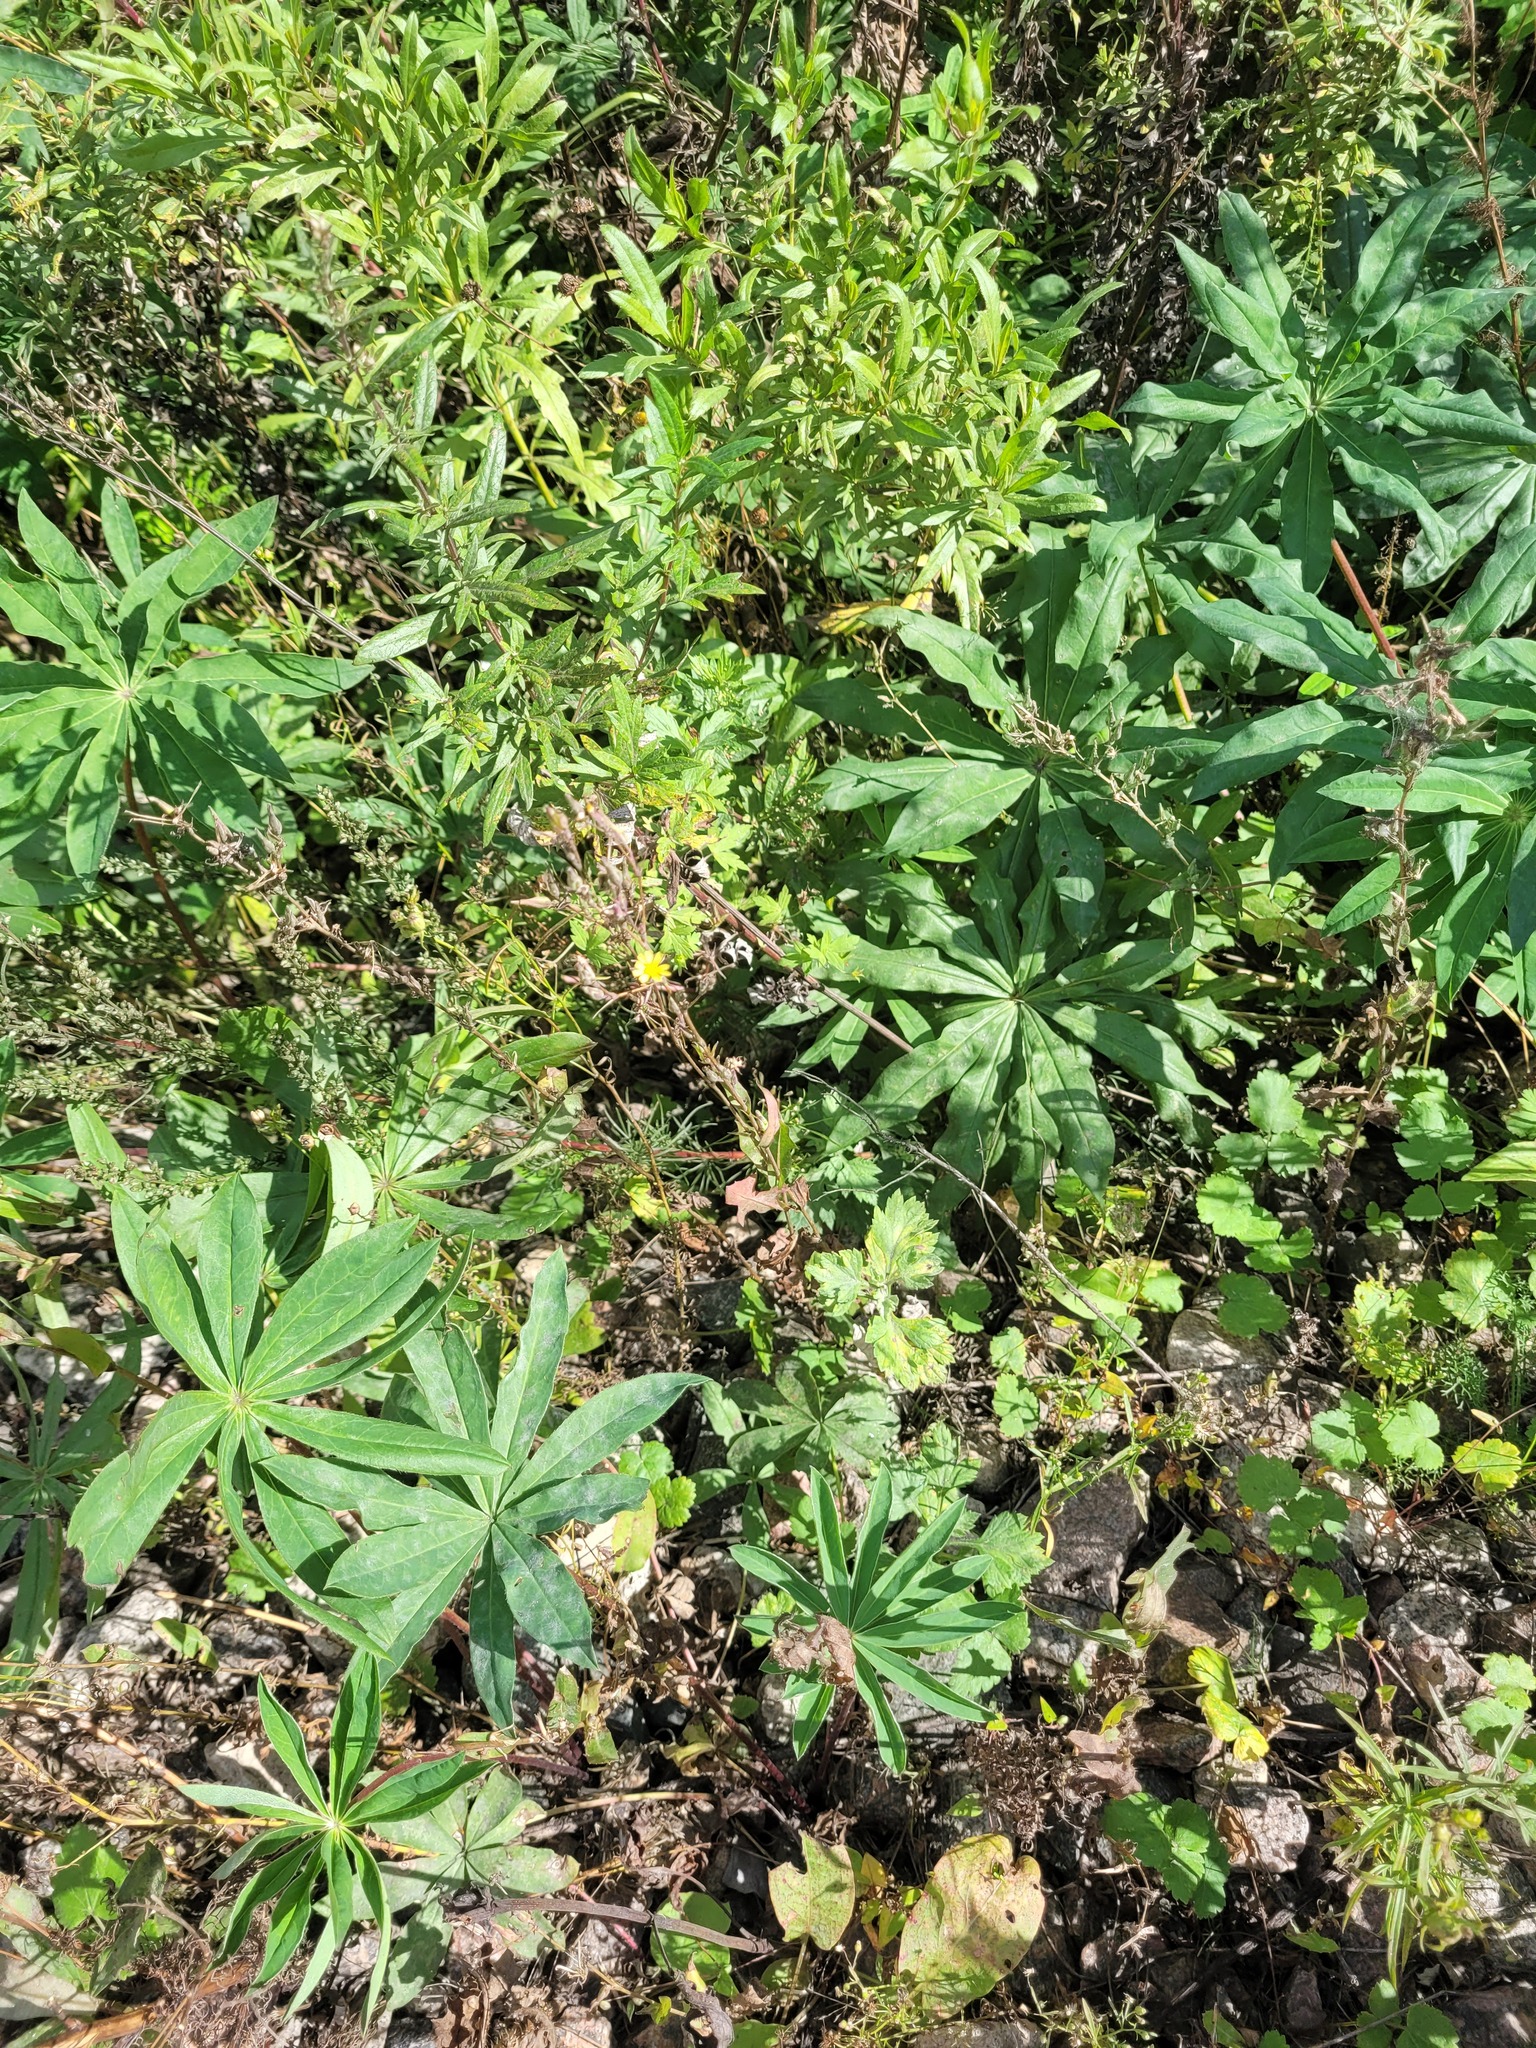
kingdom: Plantae
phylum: Tracheophyta
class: Magnoliopsida
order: Asterales
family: Asteraceae
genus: Lactuca
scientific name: Lactuca serriola
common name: Prickly lettuce
